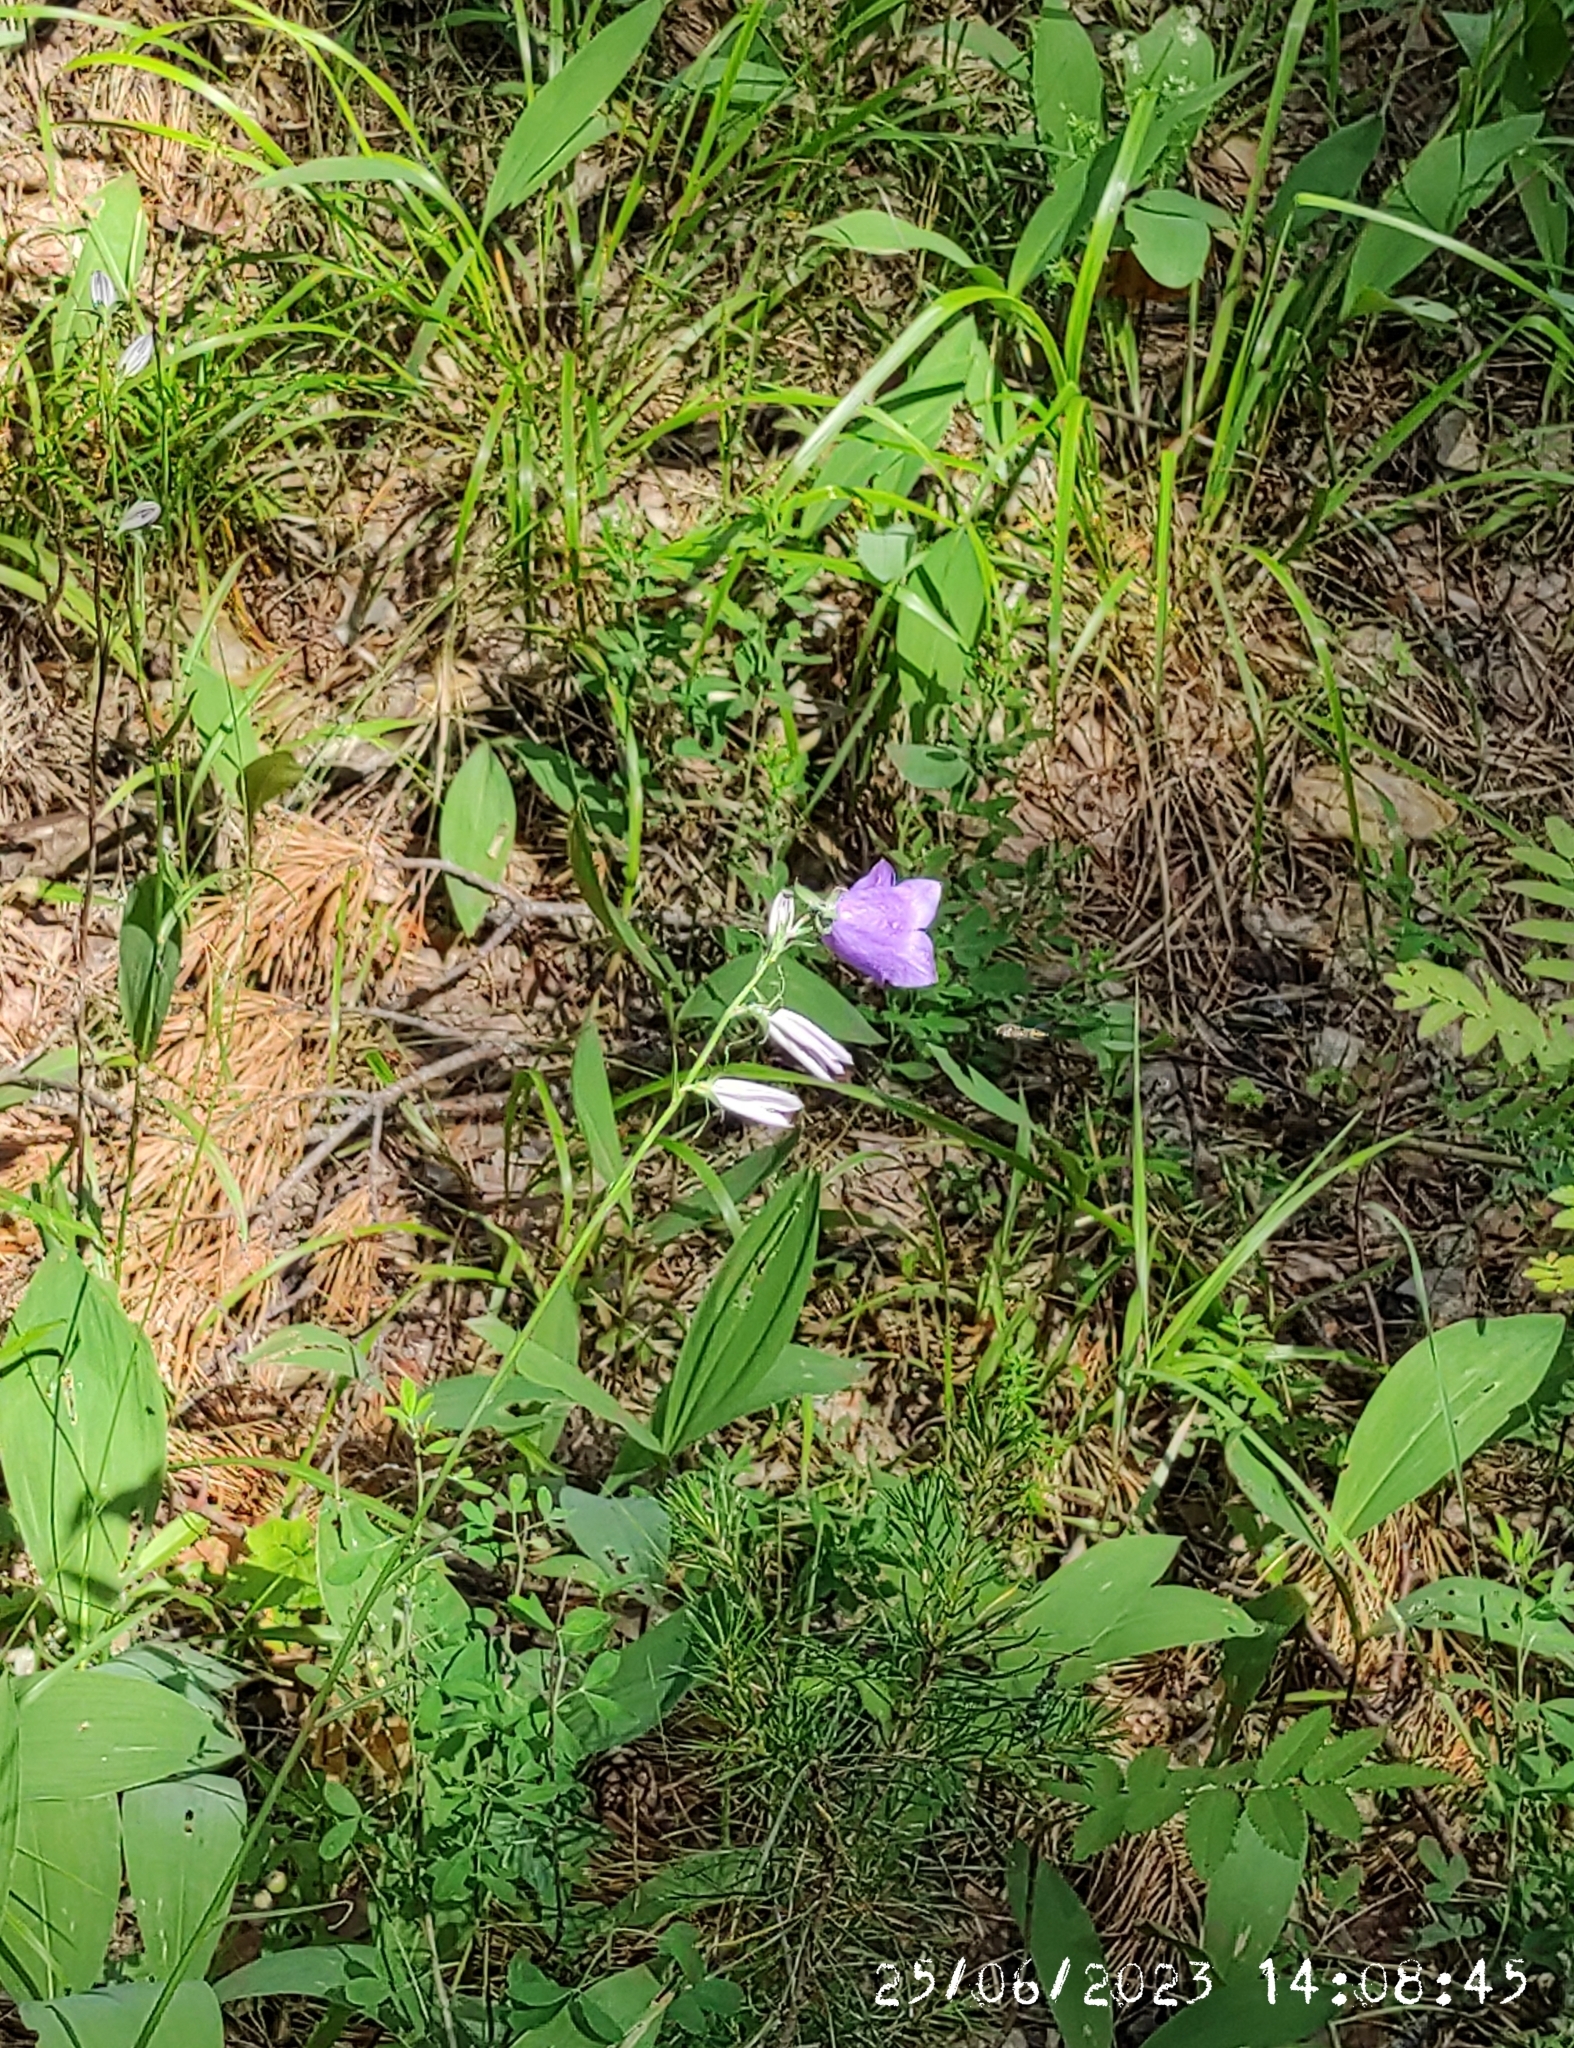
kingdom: Plantae
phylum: Tracheophyta
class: Magnoliopsida
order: Asterales
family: Campanulaceae
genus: Campanula
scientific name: Campanula persicifolia
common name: Peach-leaved bellflower
